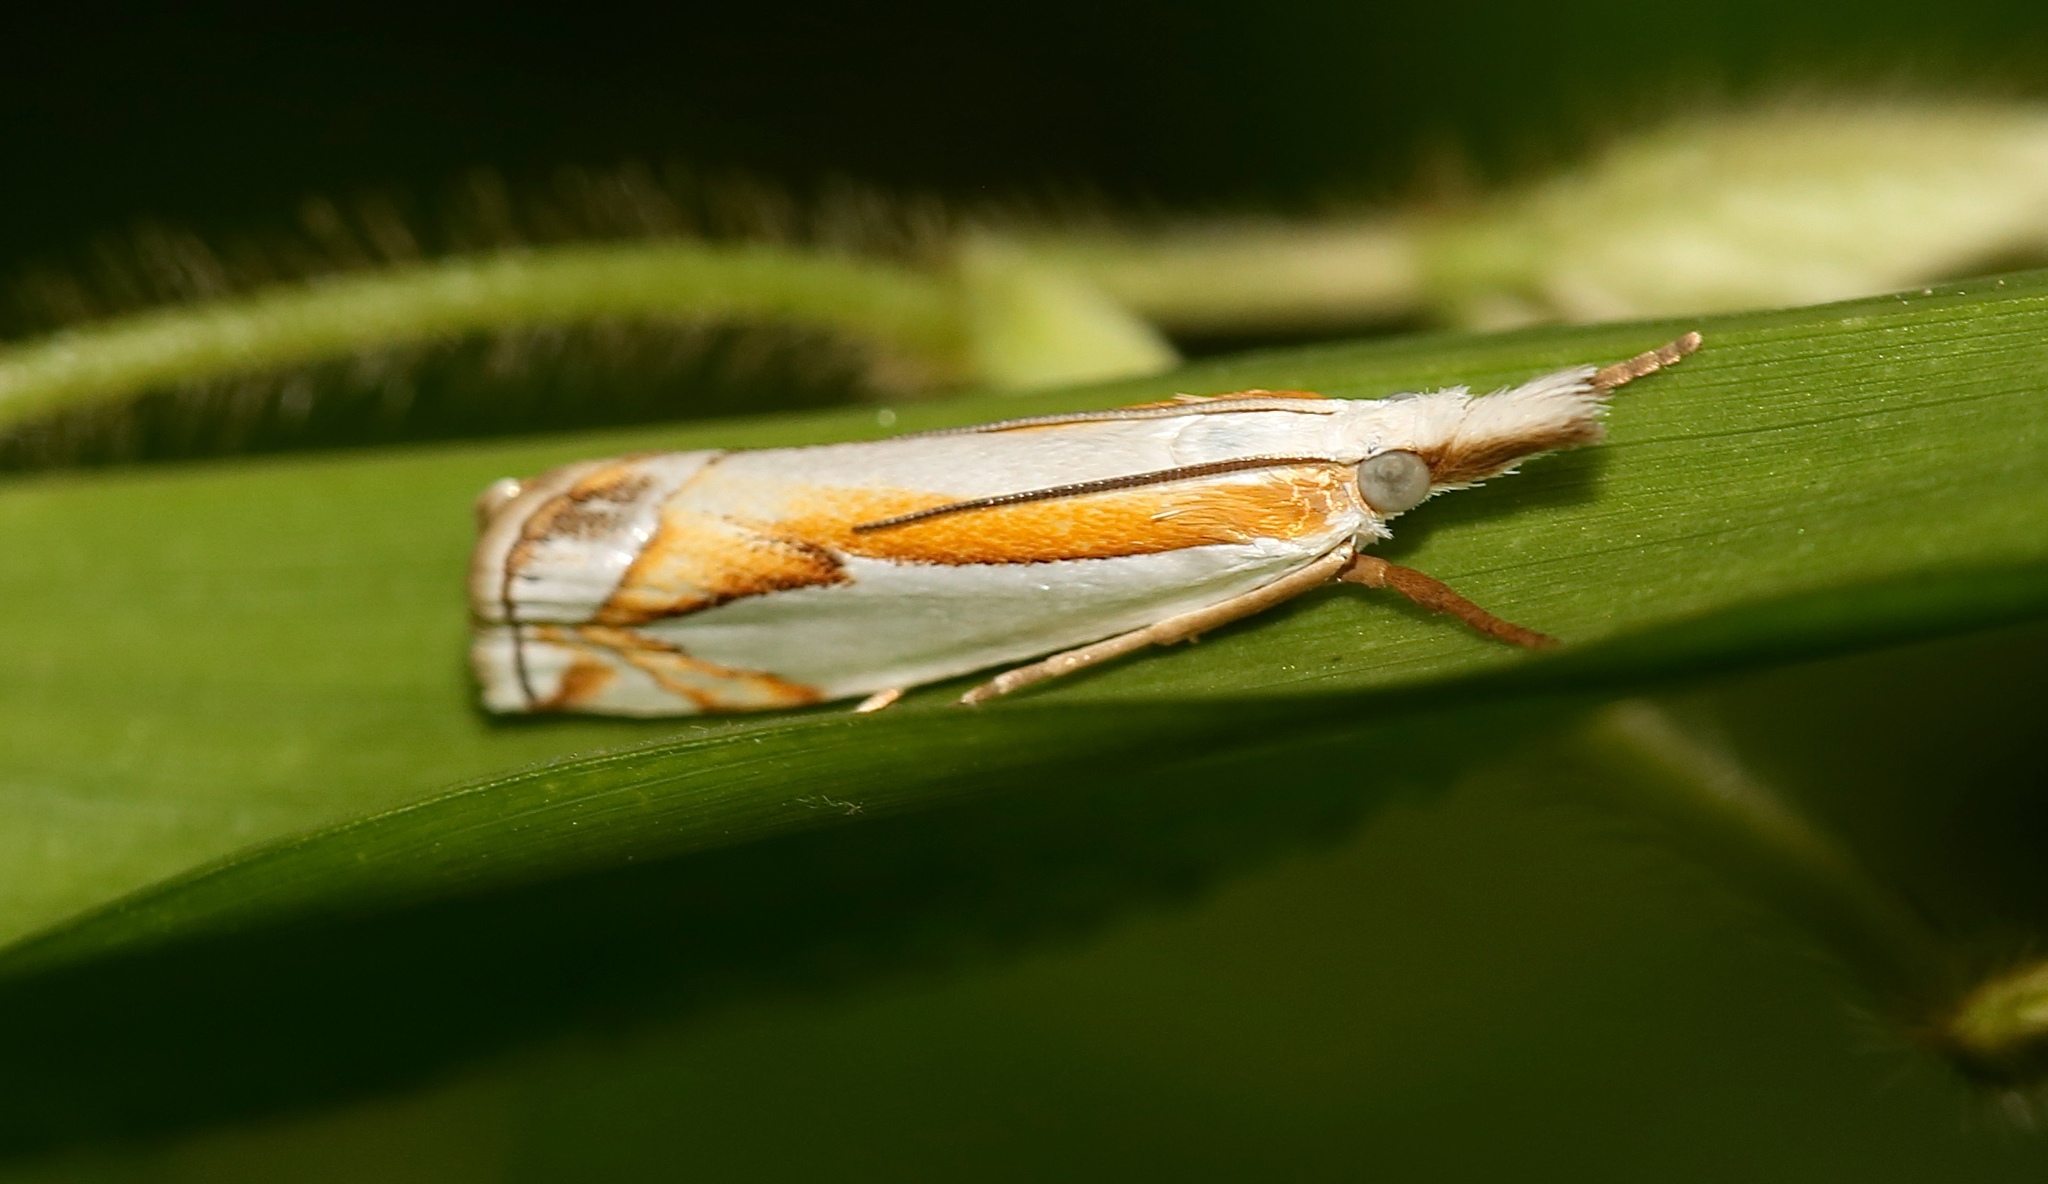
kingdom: Animalia
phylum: Arthropoda
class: Insecta
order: Lepidoptera
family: Crambidae
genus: Crambus
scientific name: Crambus girardellus
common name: Girard's grass-veneer
